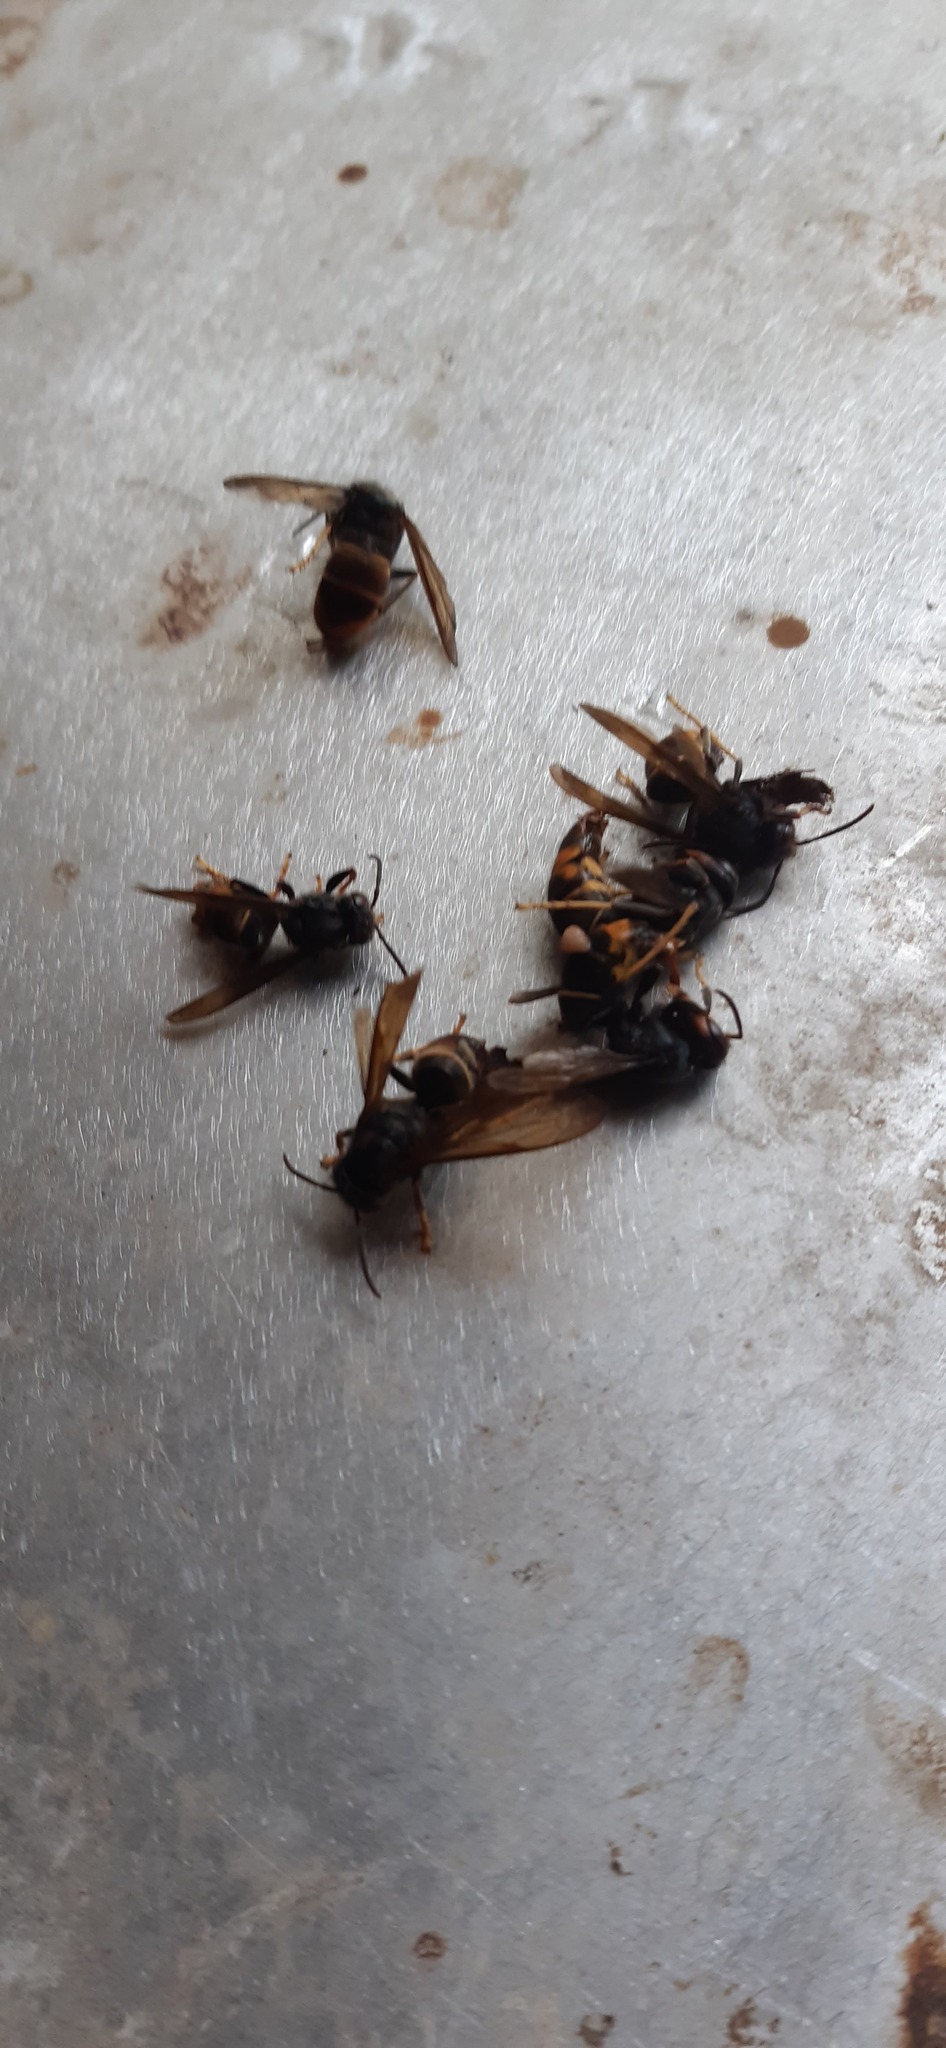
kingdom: Animalia
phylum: Arthropoda
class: Insecta
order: Hymenoptera
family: Vespidae
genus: Vespa
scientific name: Vespa velutina
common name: Asian hornet
